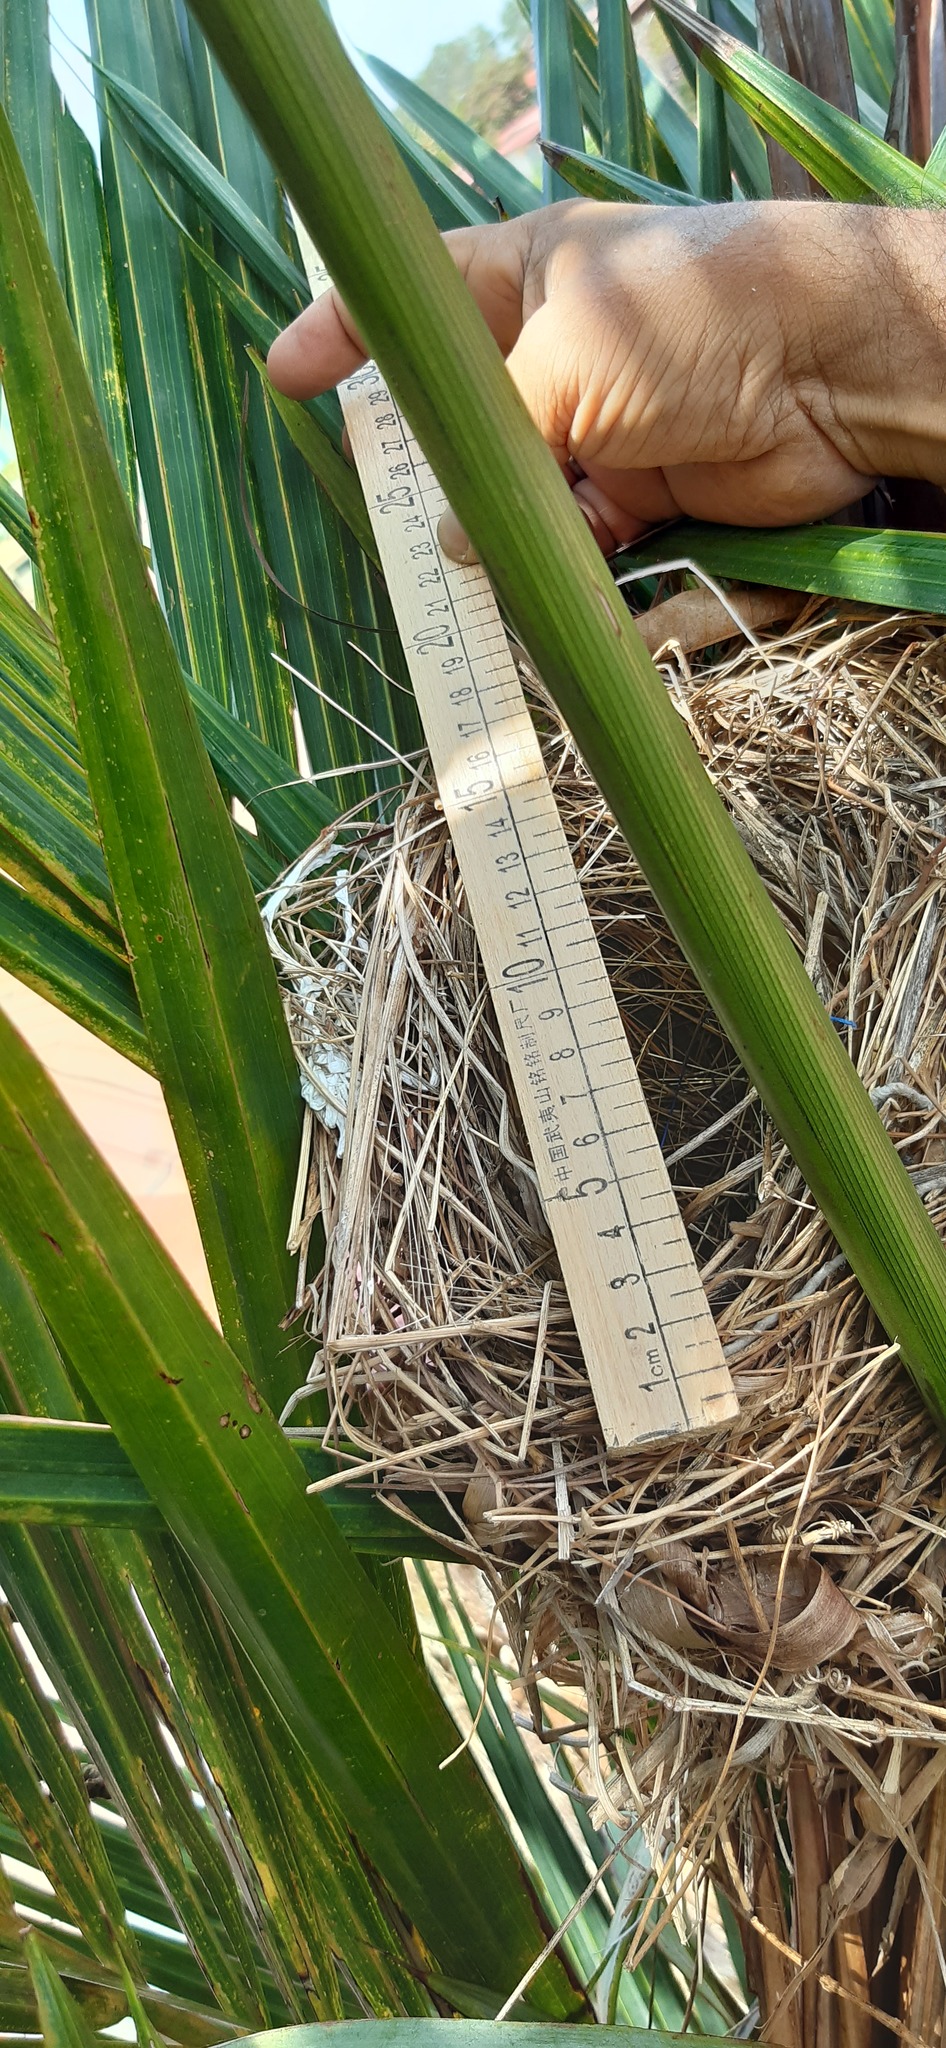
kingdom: Animalia
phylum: Chordata
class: Aves
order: Passeriformes
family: Icteridae
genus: Quiscalus
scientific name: Quiscalus mexicanus
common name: Great-tailed grackle
